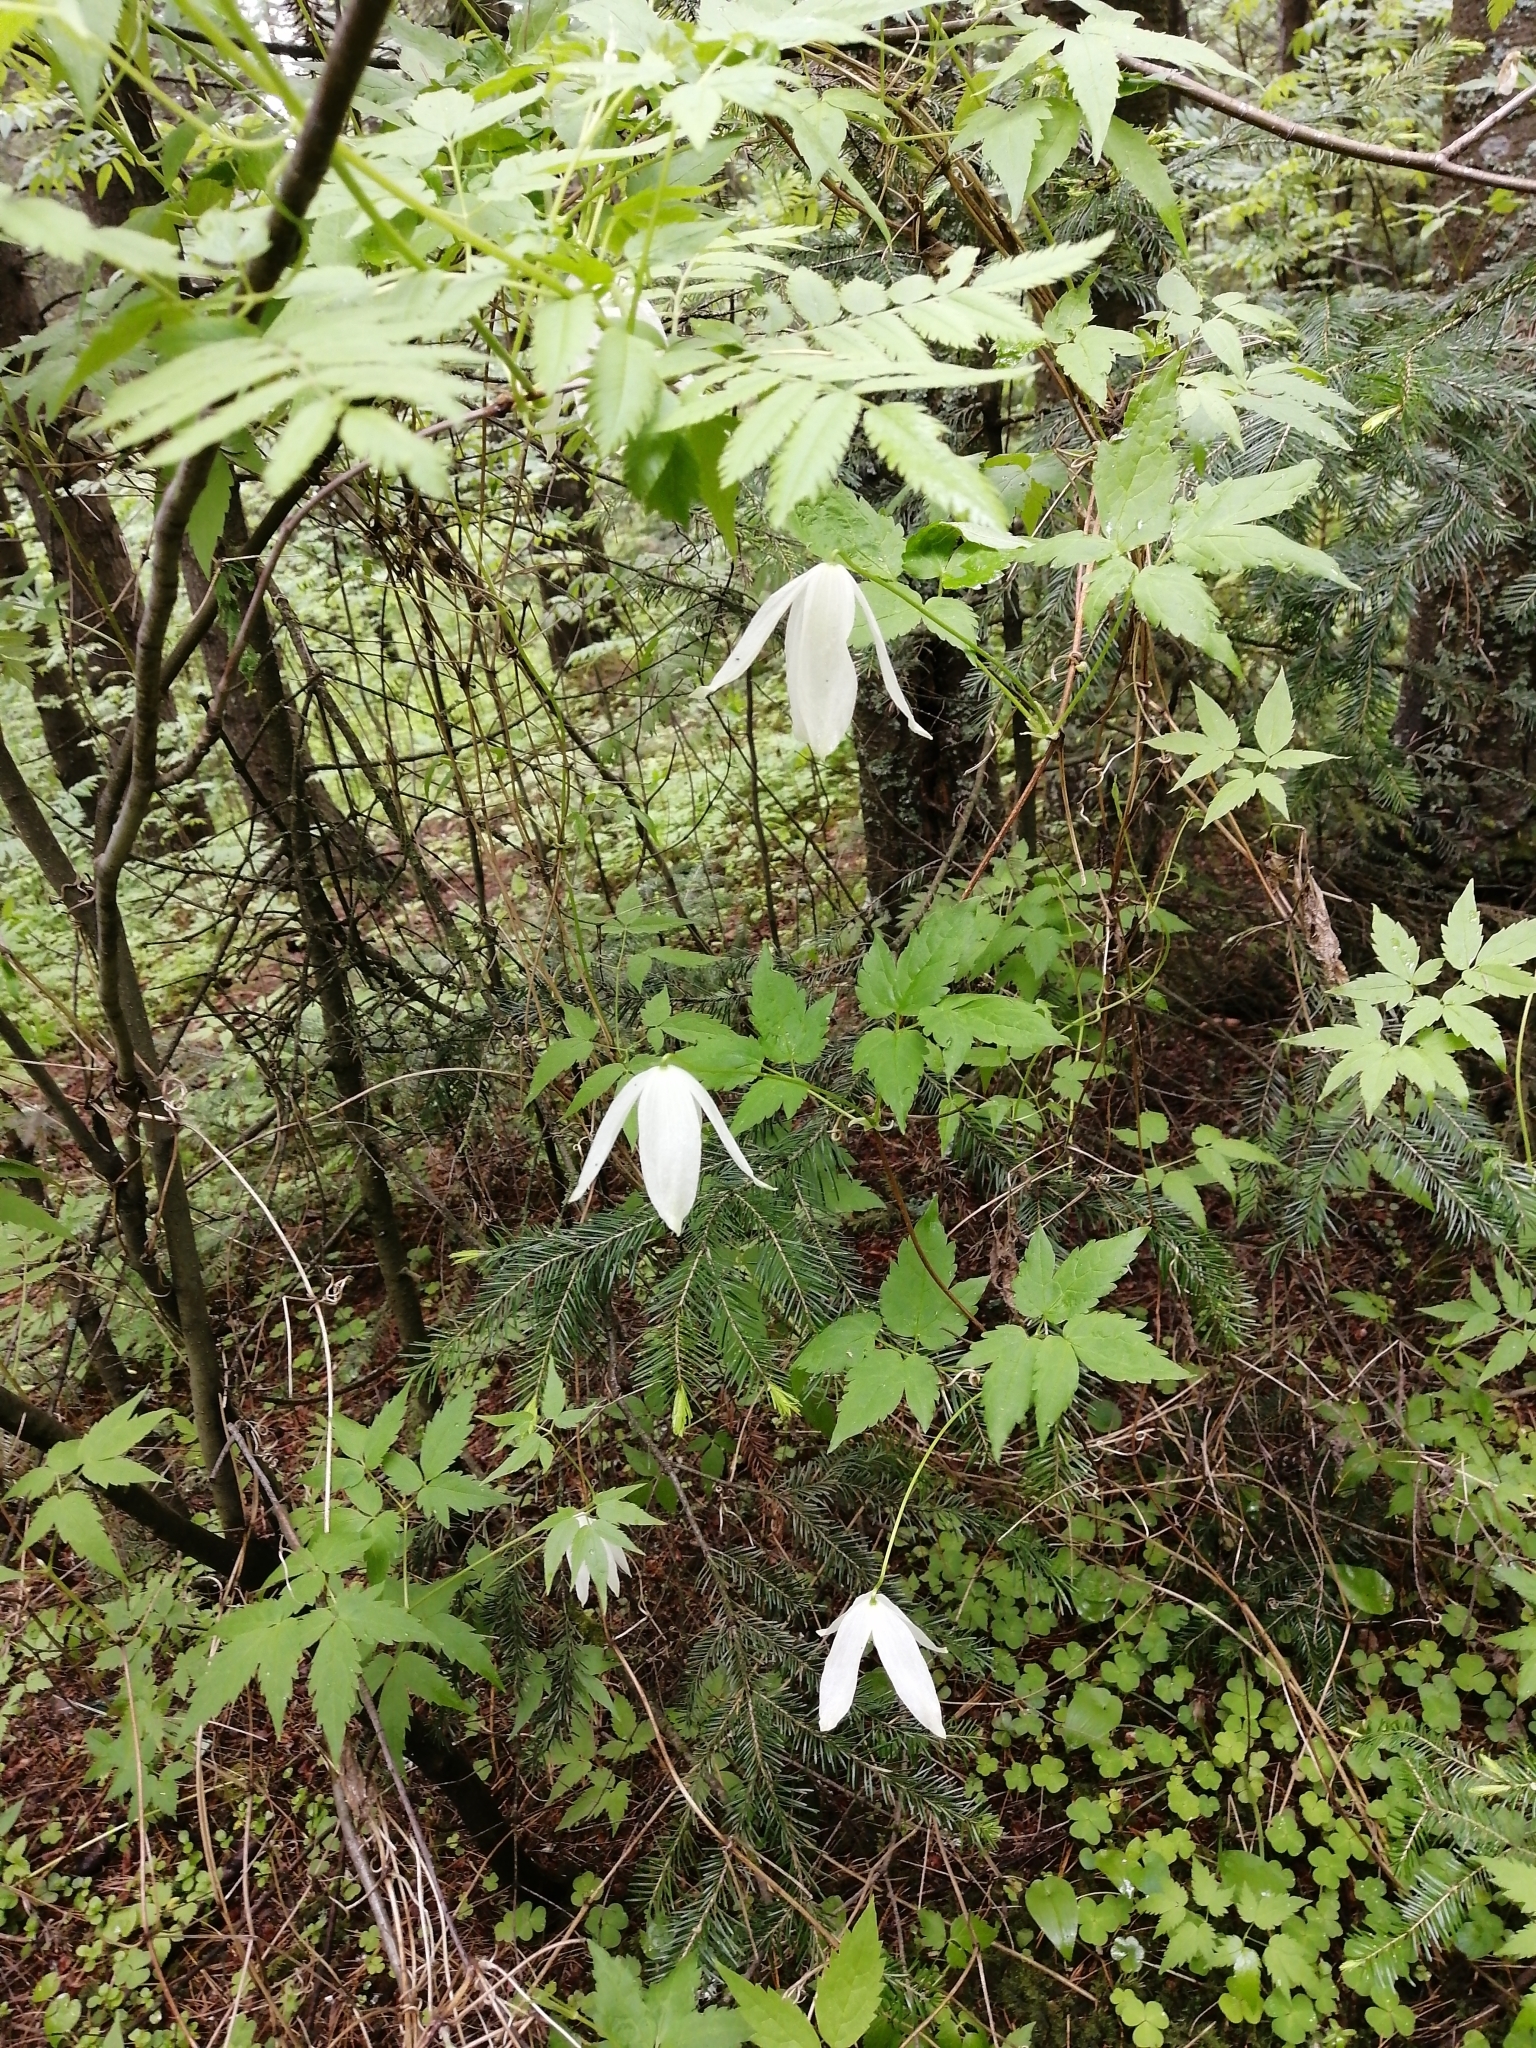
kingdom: Plantae
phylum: Tracheophyta
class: Magnoliopsida
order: Ranunculales
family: Ranunculaceae
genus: Clematis
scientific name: Clematis sibirica
